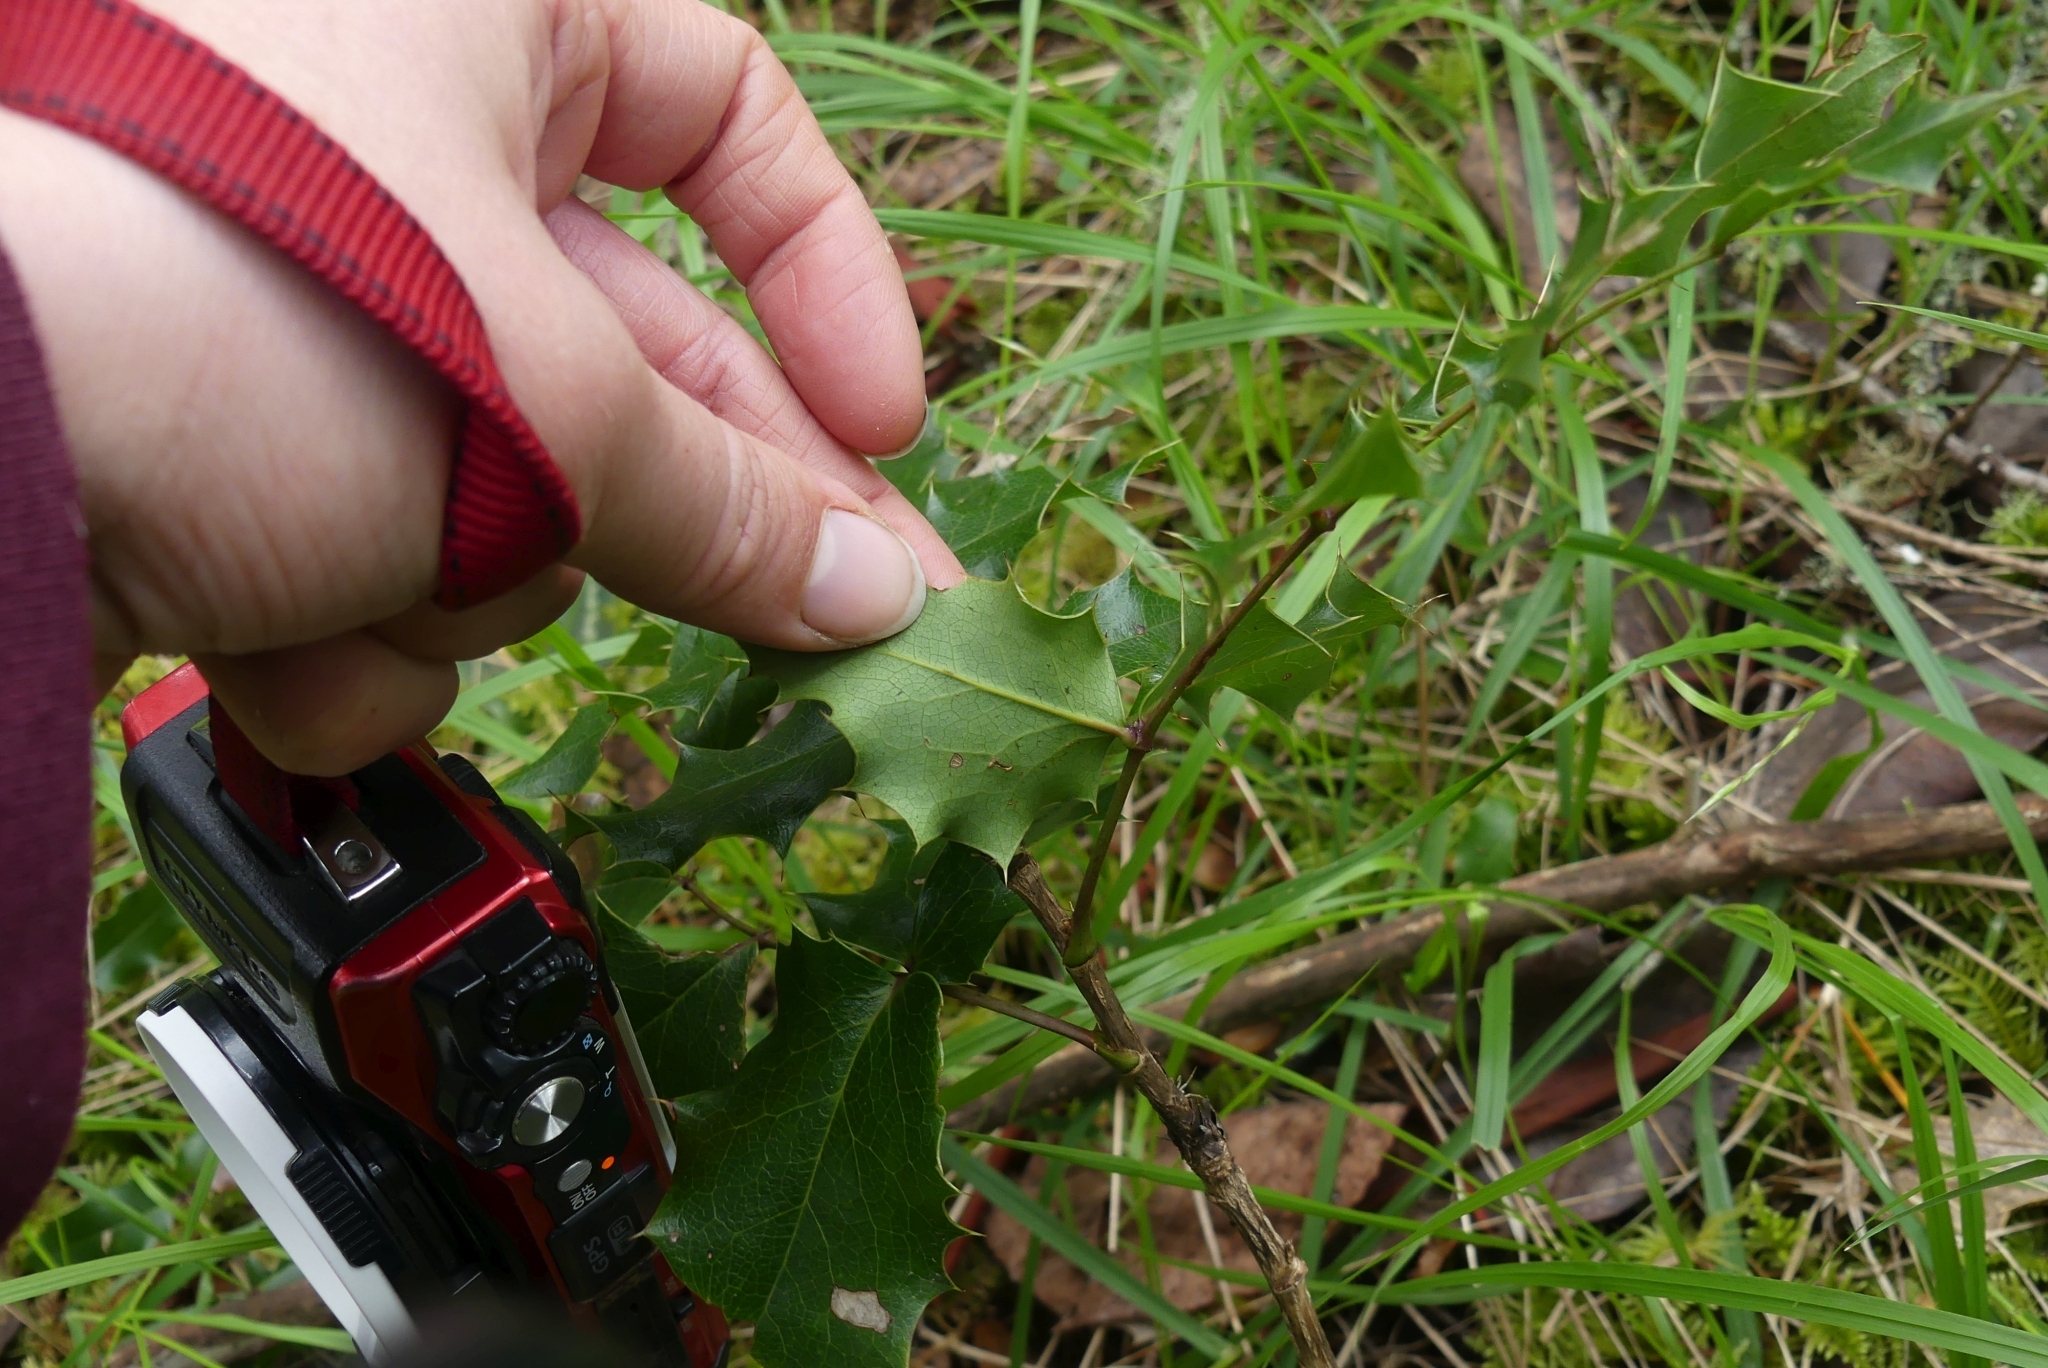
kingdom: Plantae
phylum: Tracheophyta
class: Magnoliopsida
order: Ranunculales
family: Berberidaceae
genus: Mahonia
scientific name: Mahonia aquifolium
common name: Oregon-grape
